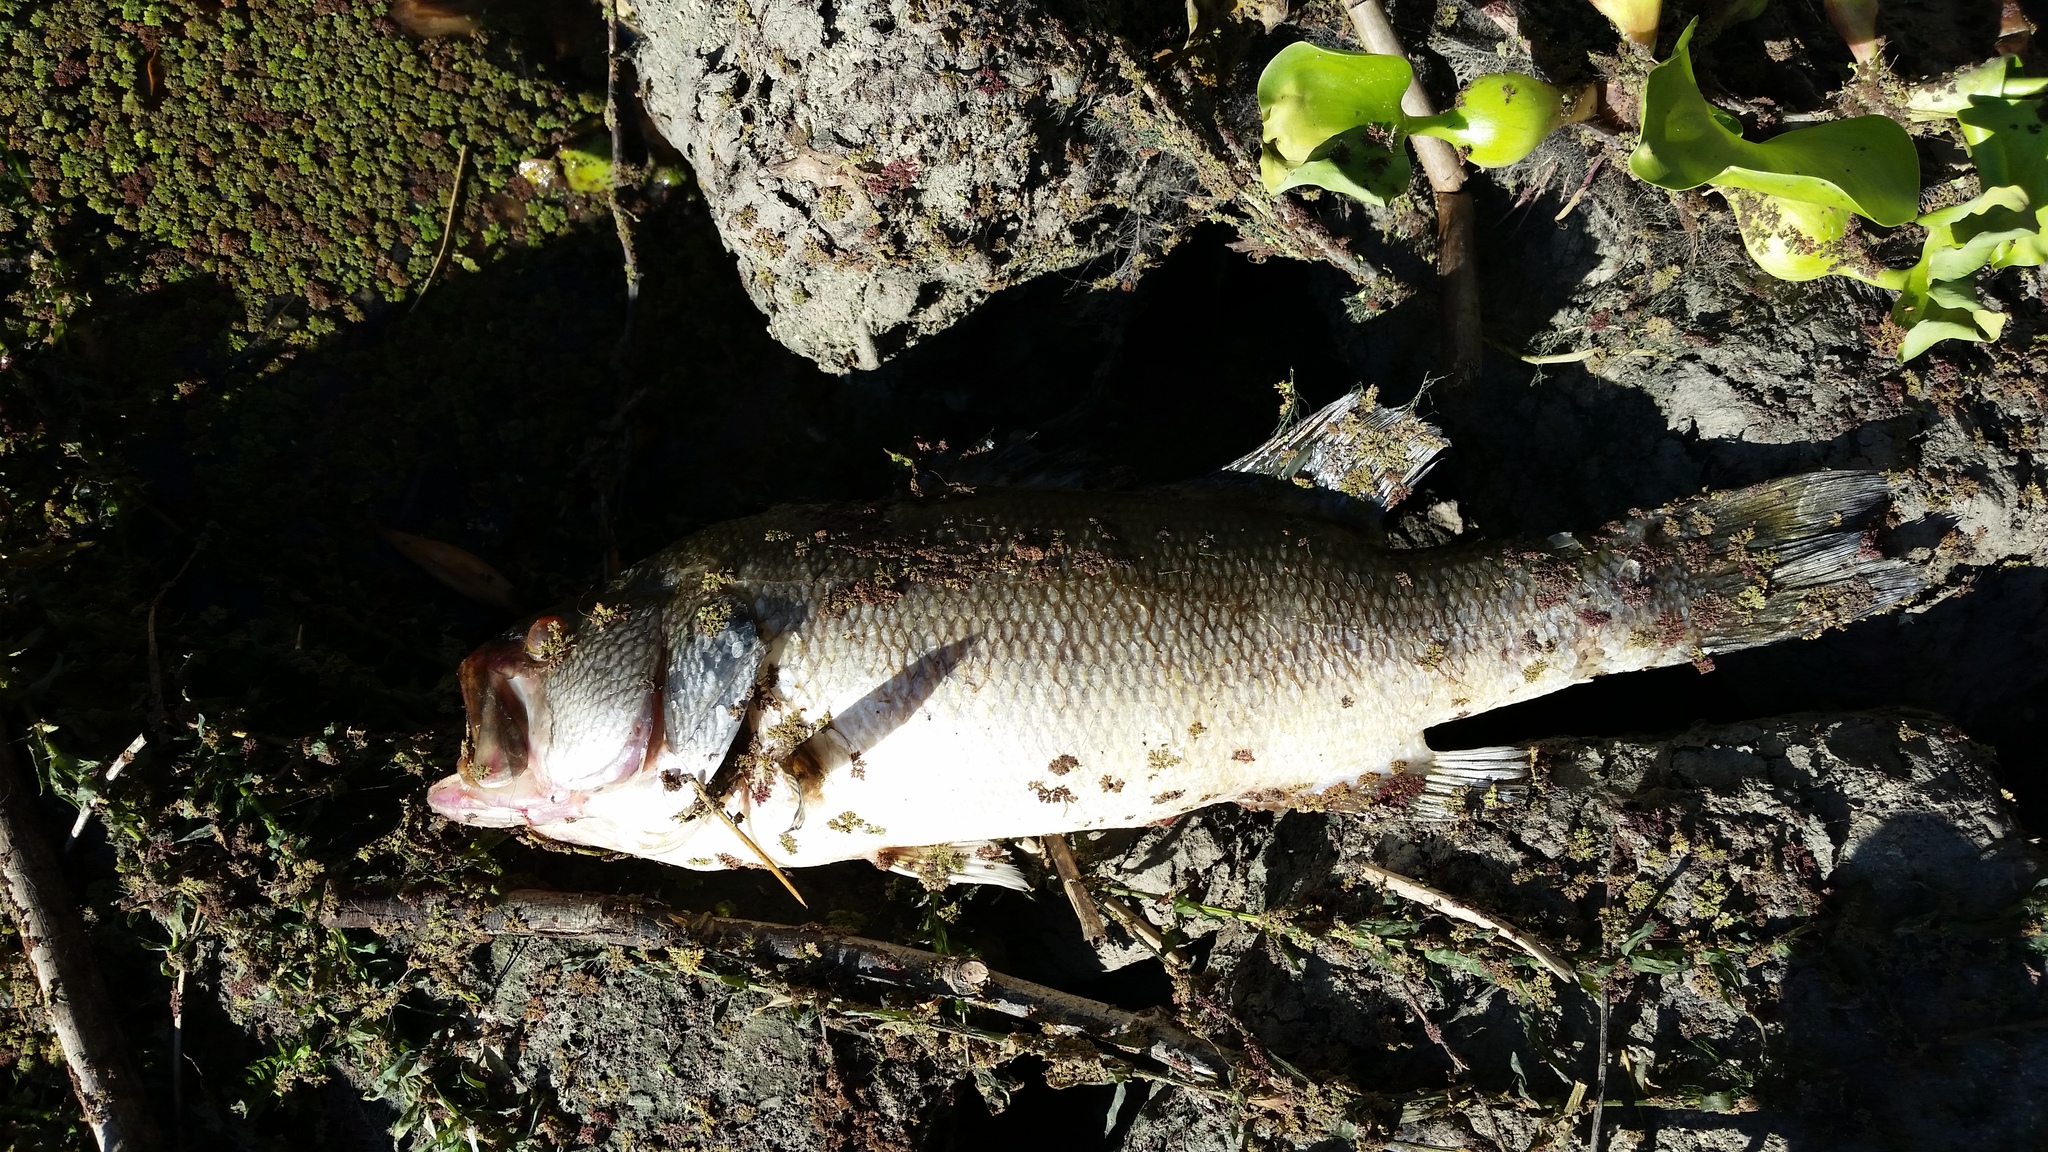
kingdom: Animalia
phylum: Chordata
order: Perciformes
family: Centrarchidae
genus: Micropterus
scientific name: Micropterus
